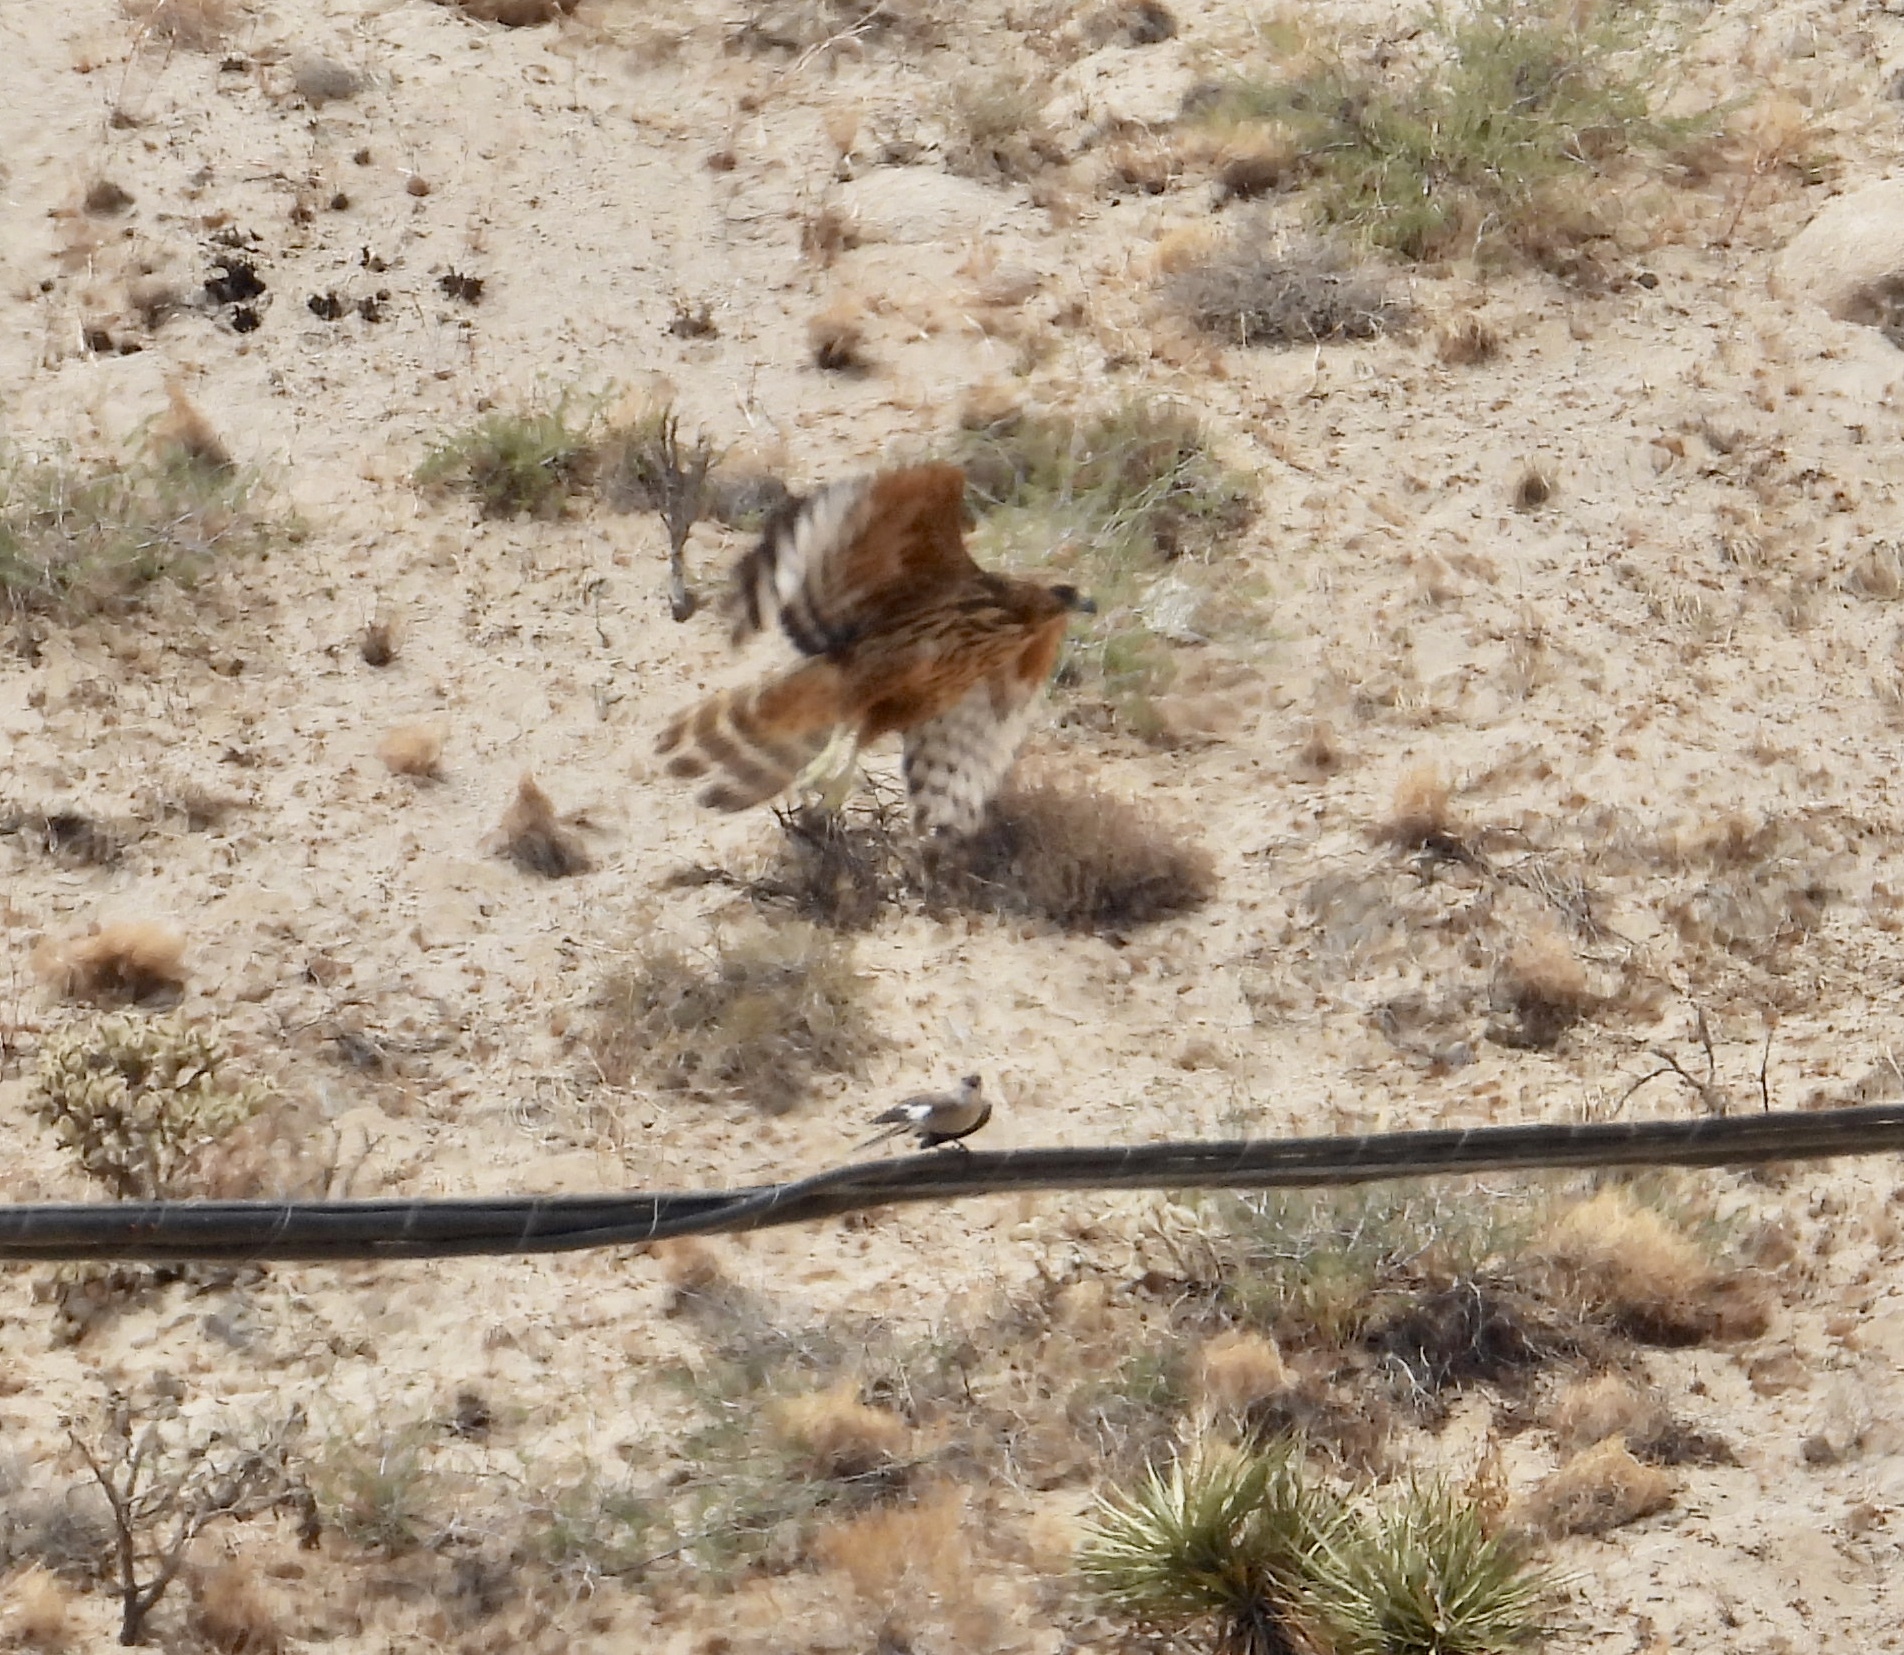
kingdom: Animalia
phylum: Chordata
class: Aves
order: Accipitriformes
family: Accipitridae
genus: Buteo
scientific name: Buteo lineatus
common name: Red-shouldered hawk
